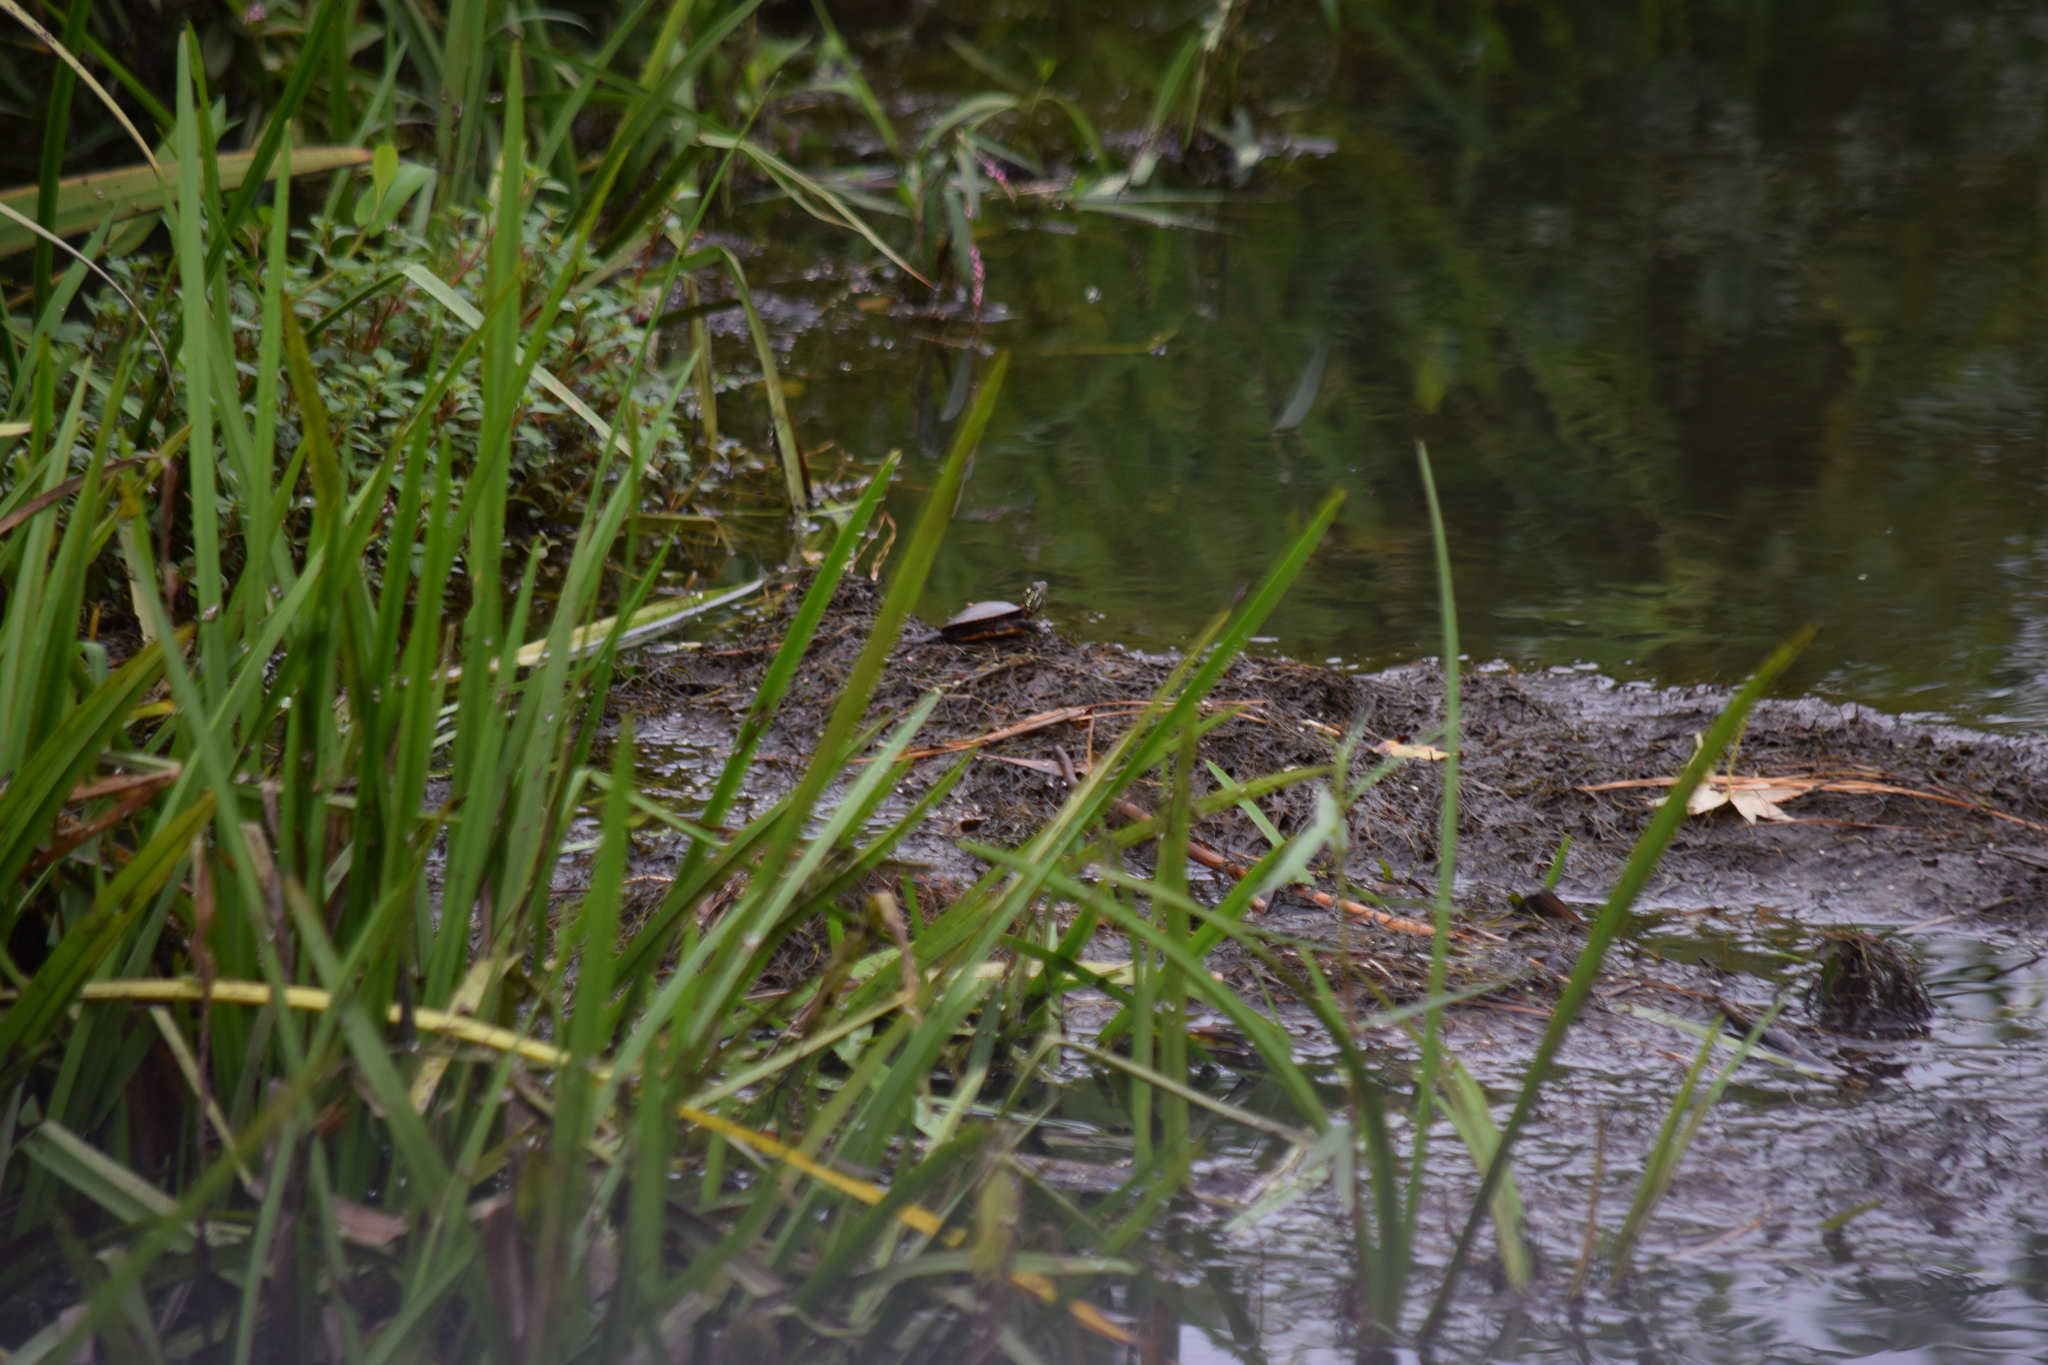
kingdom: Animalia
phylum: Chordata
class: Testudines
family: Emydidae
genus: Chrysemys
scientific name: Chrysemys picta
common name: Painted turtle
